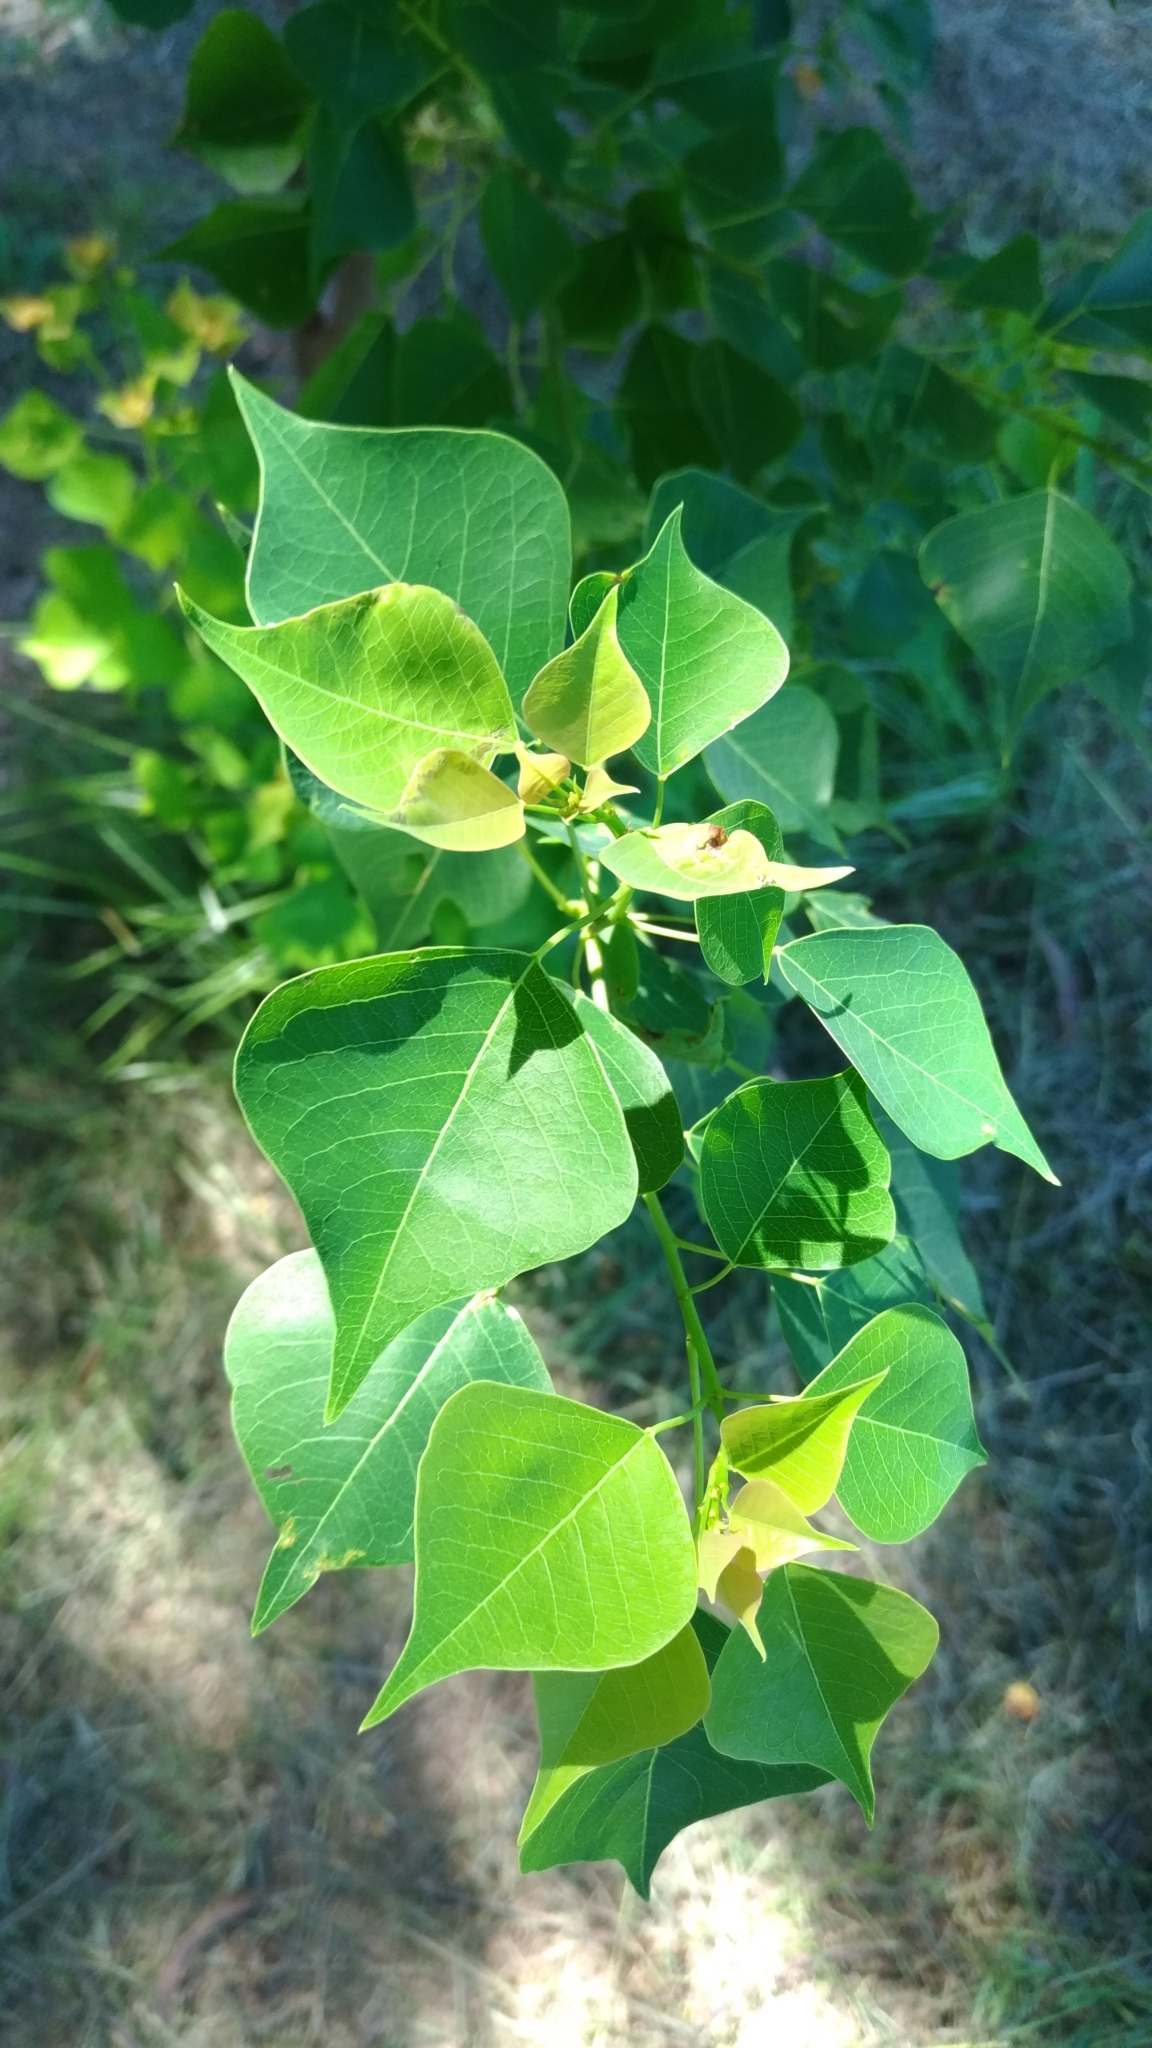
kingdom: Plantae
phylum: Tracheophyta
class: Magnoliopsida
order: Malpighiales
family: Euphorbiaceae
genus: Triadica
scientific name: Triadica sebifera
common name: Chinese tallow
